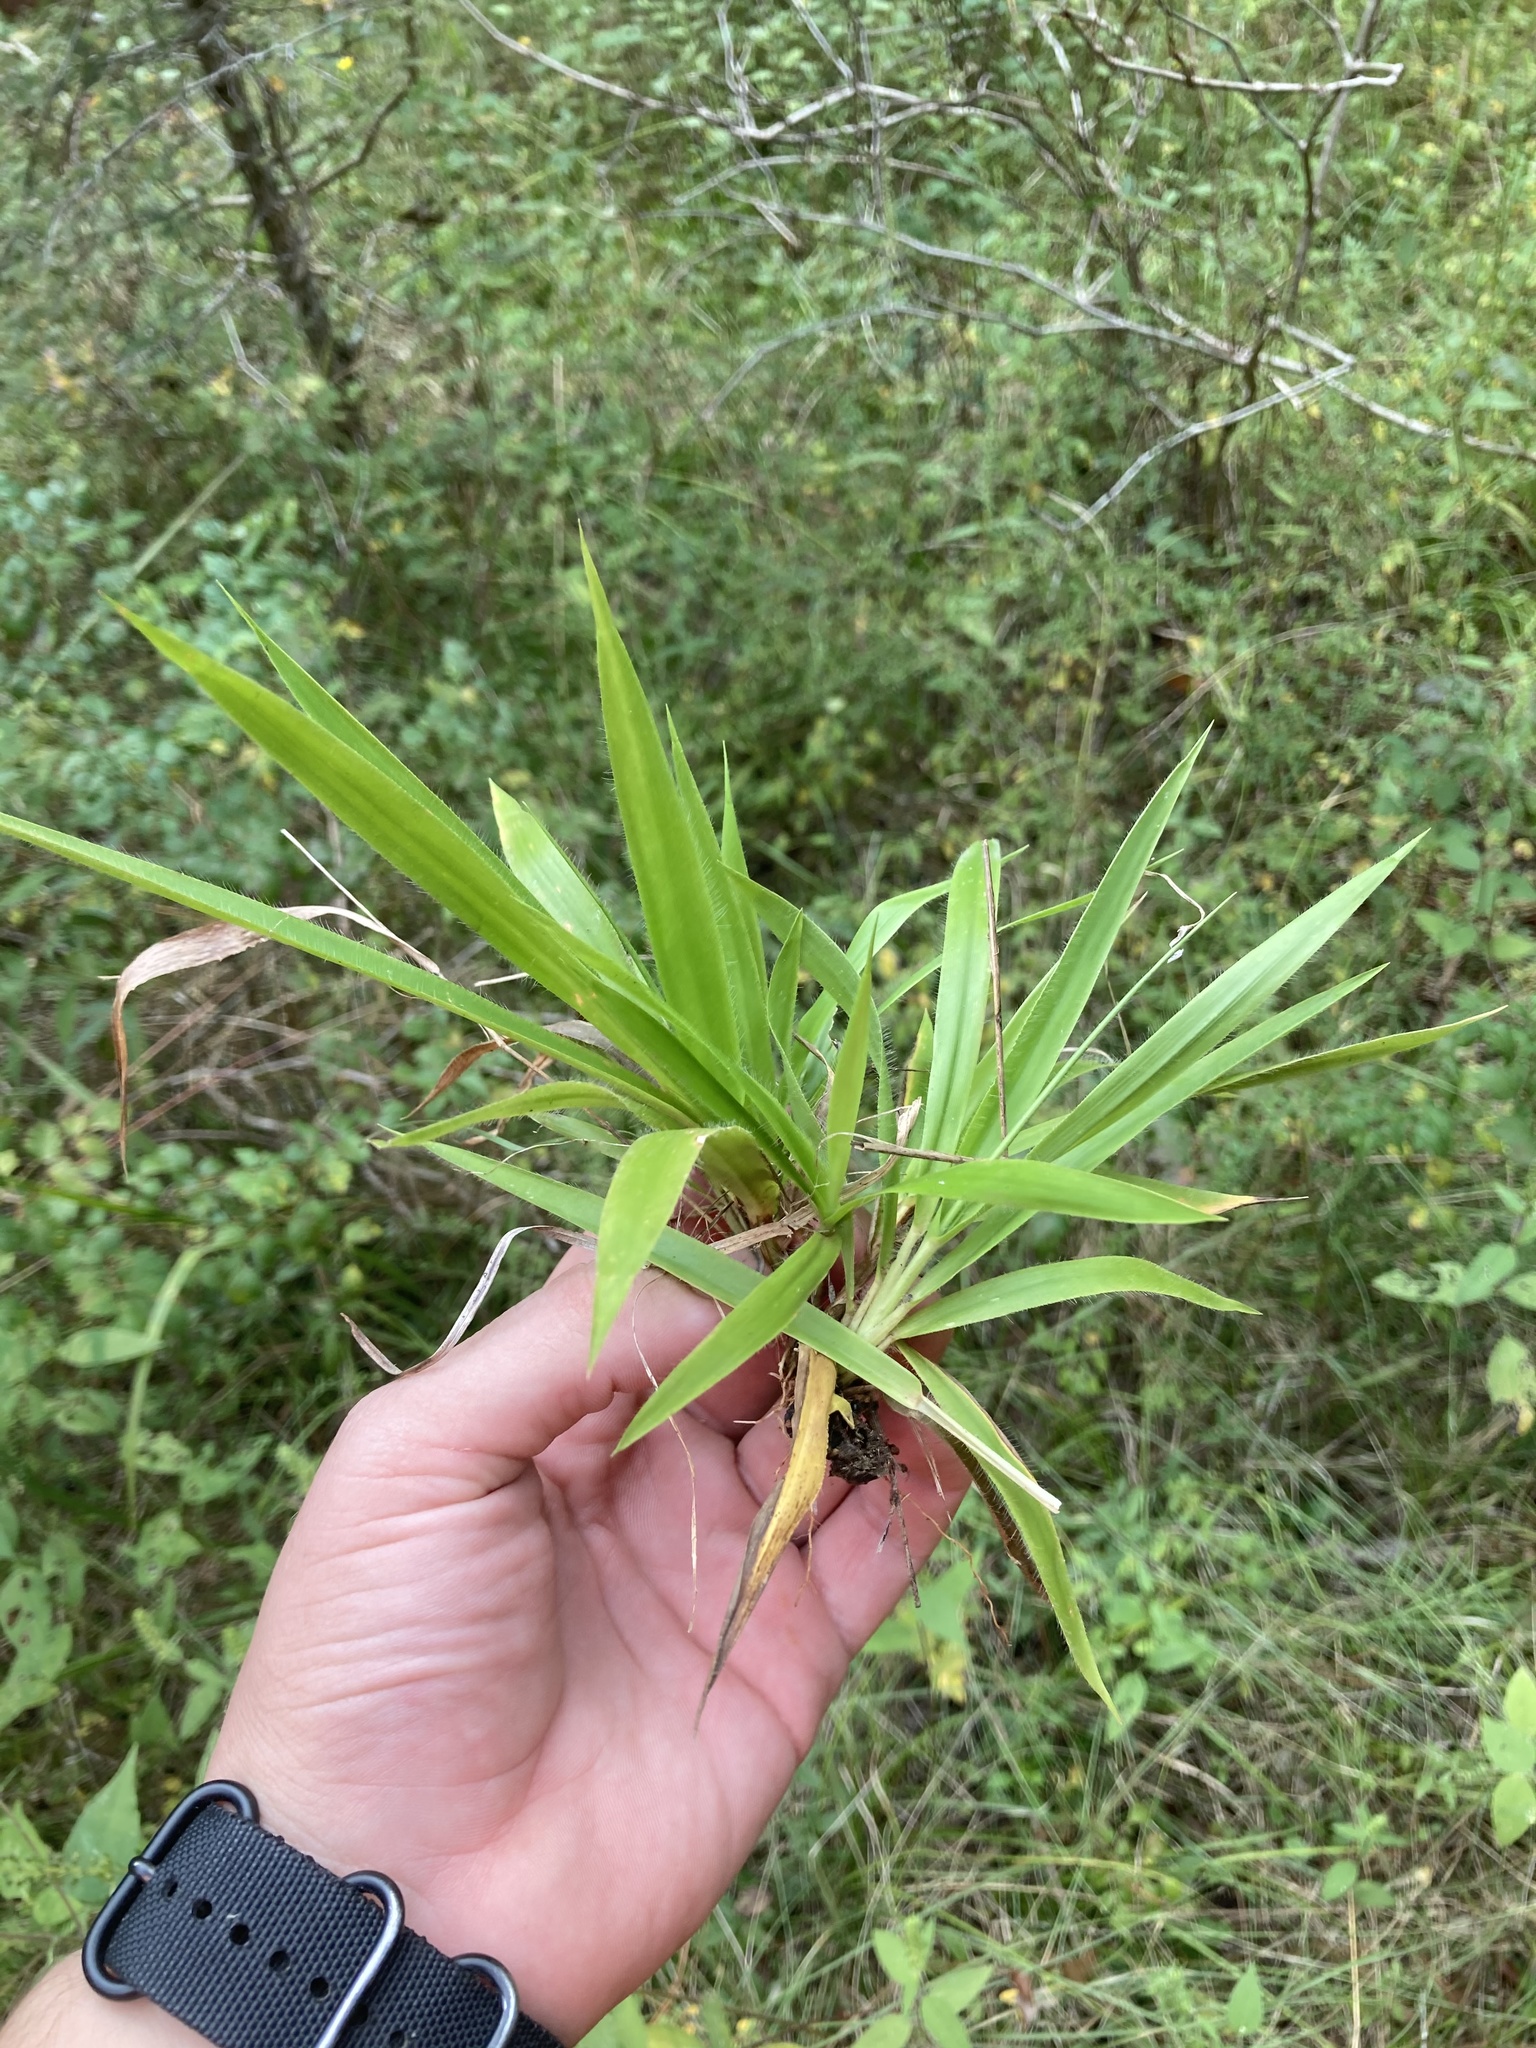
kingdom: Plantae
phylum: Tracheophyta
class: Liliopsida
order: Poales
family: Poaceae
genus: Dichanthelium
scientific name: Dichanthelium laxiflorum
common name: Soft-tuft panic grass
